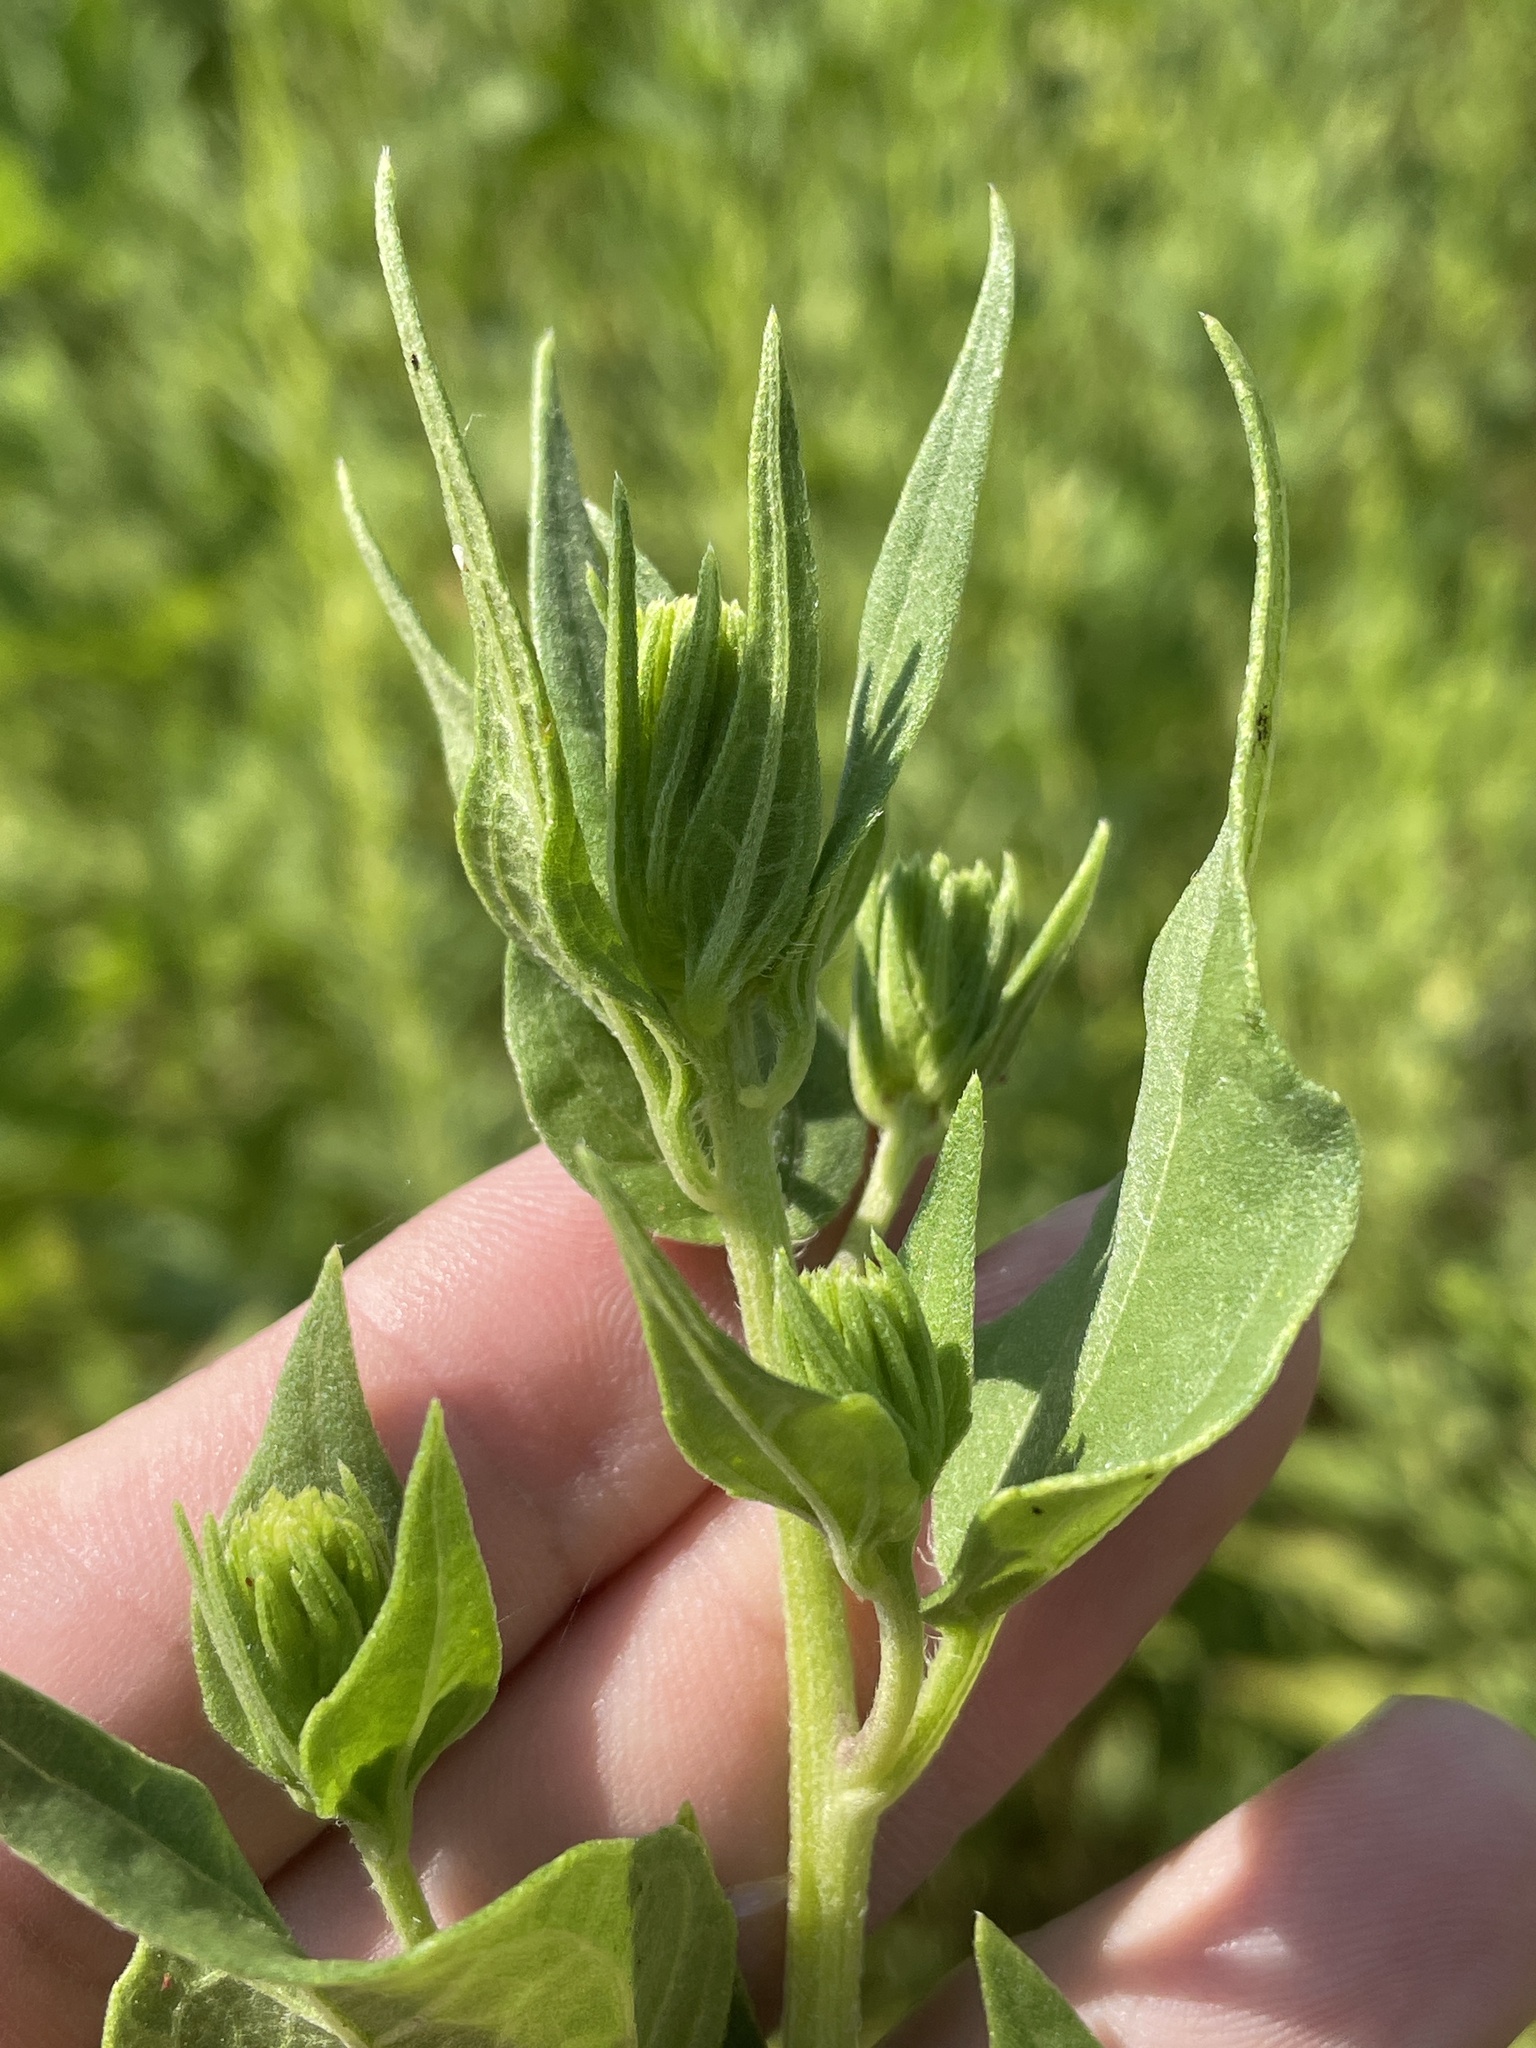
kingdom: Plantae
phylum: Tracheophyta
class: Magnoliopsida
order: Asterales
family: Asteraceae
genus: Iva
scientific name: Iva annua
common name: Marsh-elder
